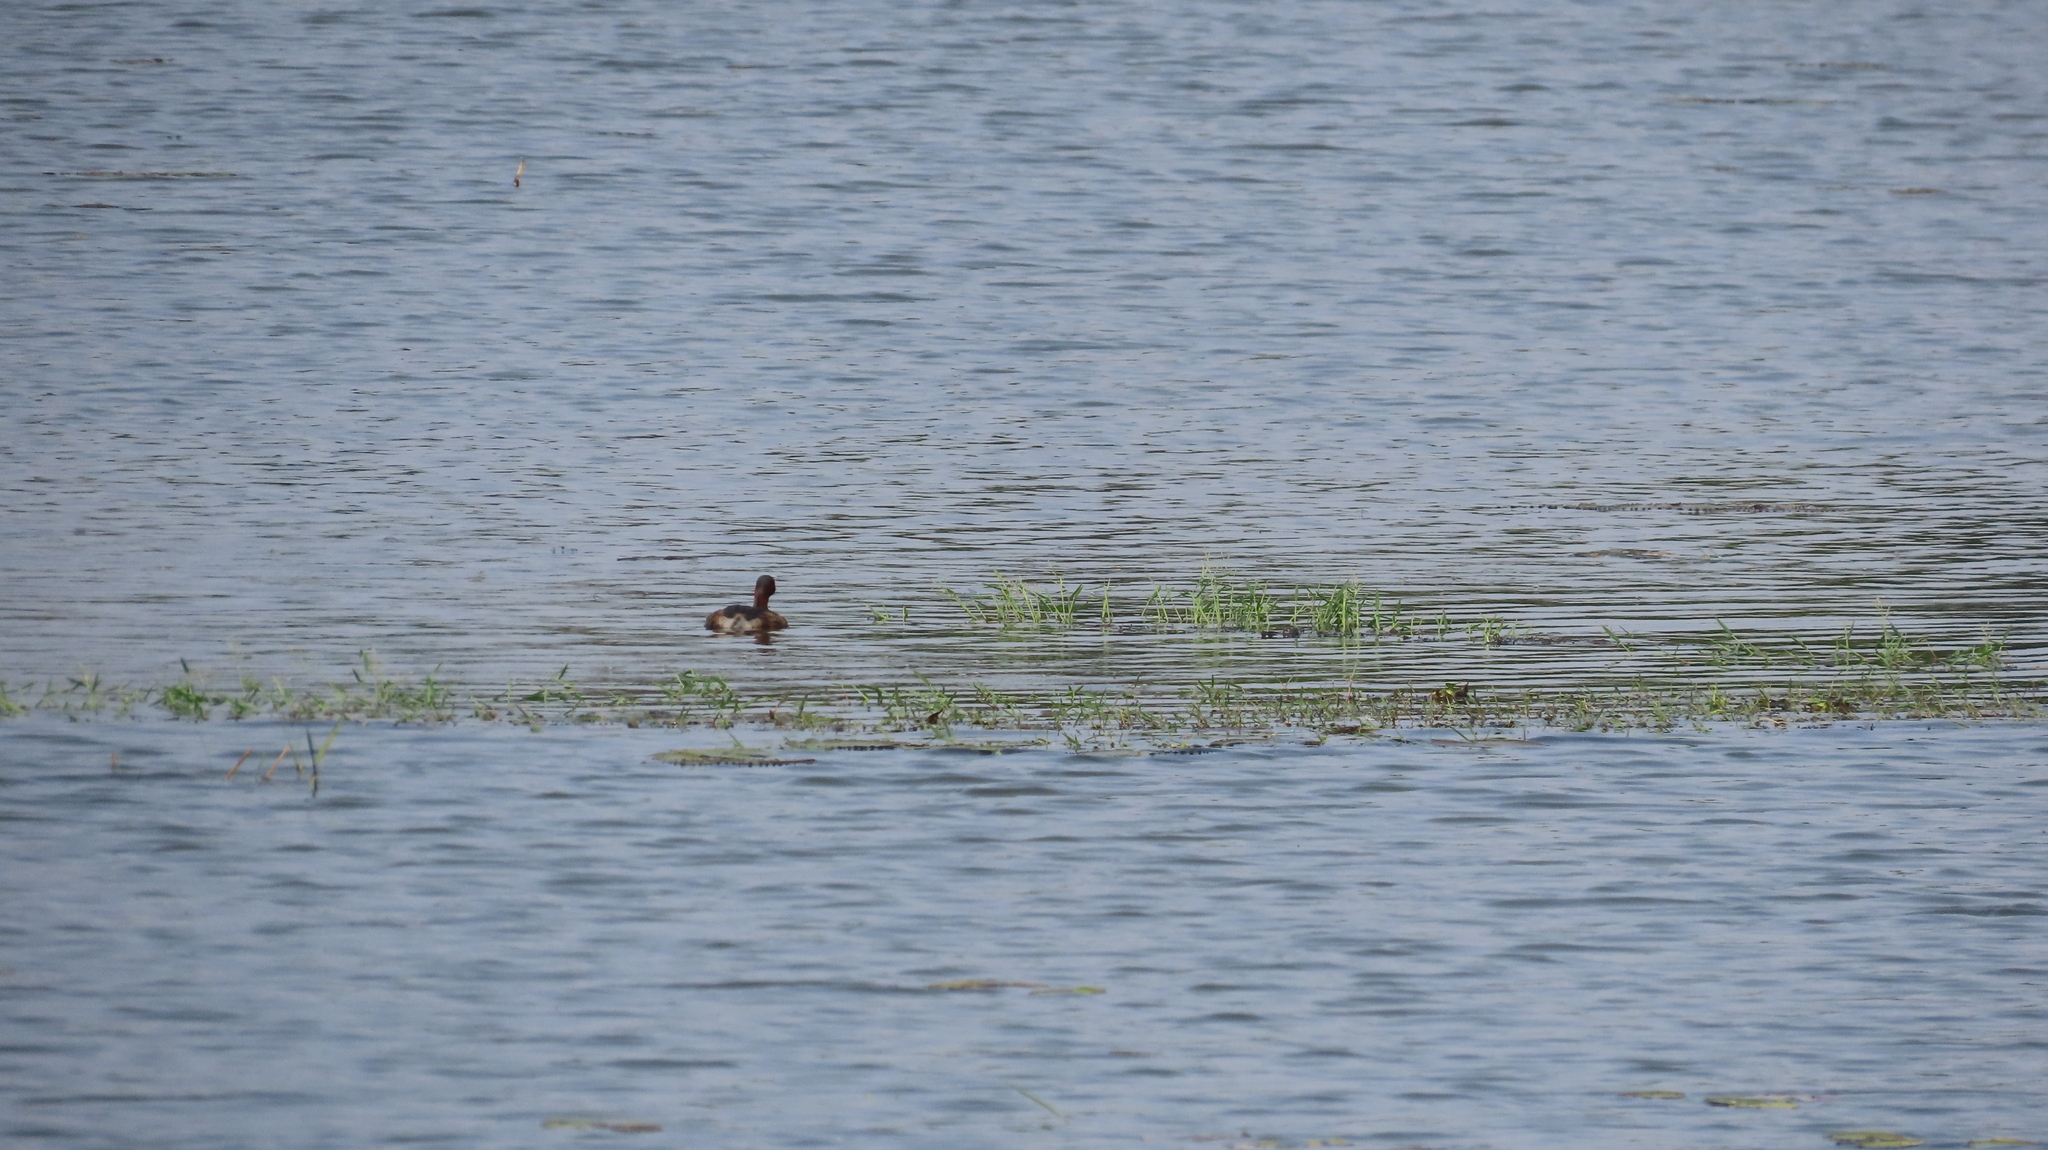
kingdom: Animalia
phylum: Chordata
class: Aves
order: Podicipediformes
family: Podicipedidae
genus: Tachybaptus
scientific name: Tachybaptus ruficollis
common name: Little grebe
